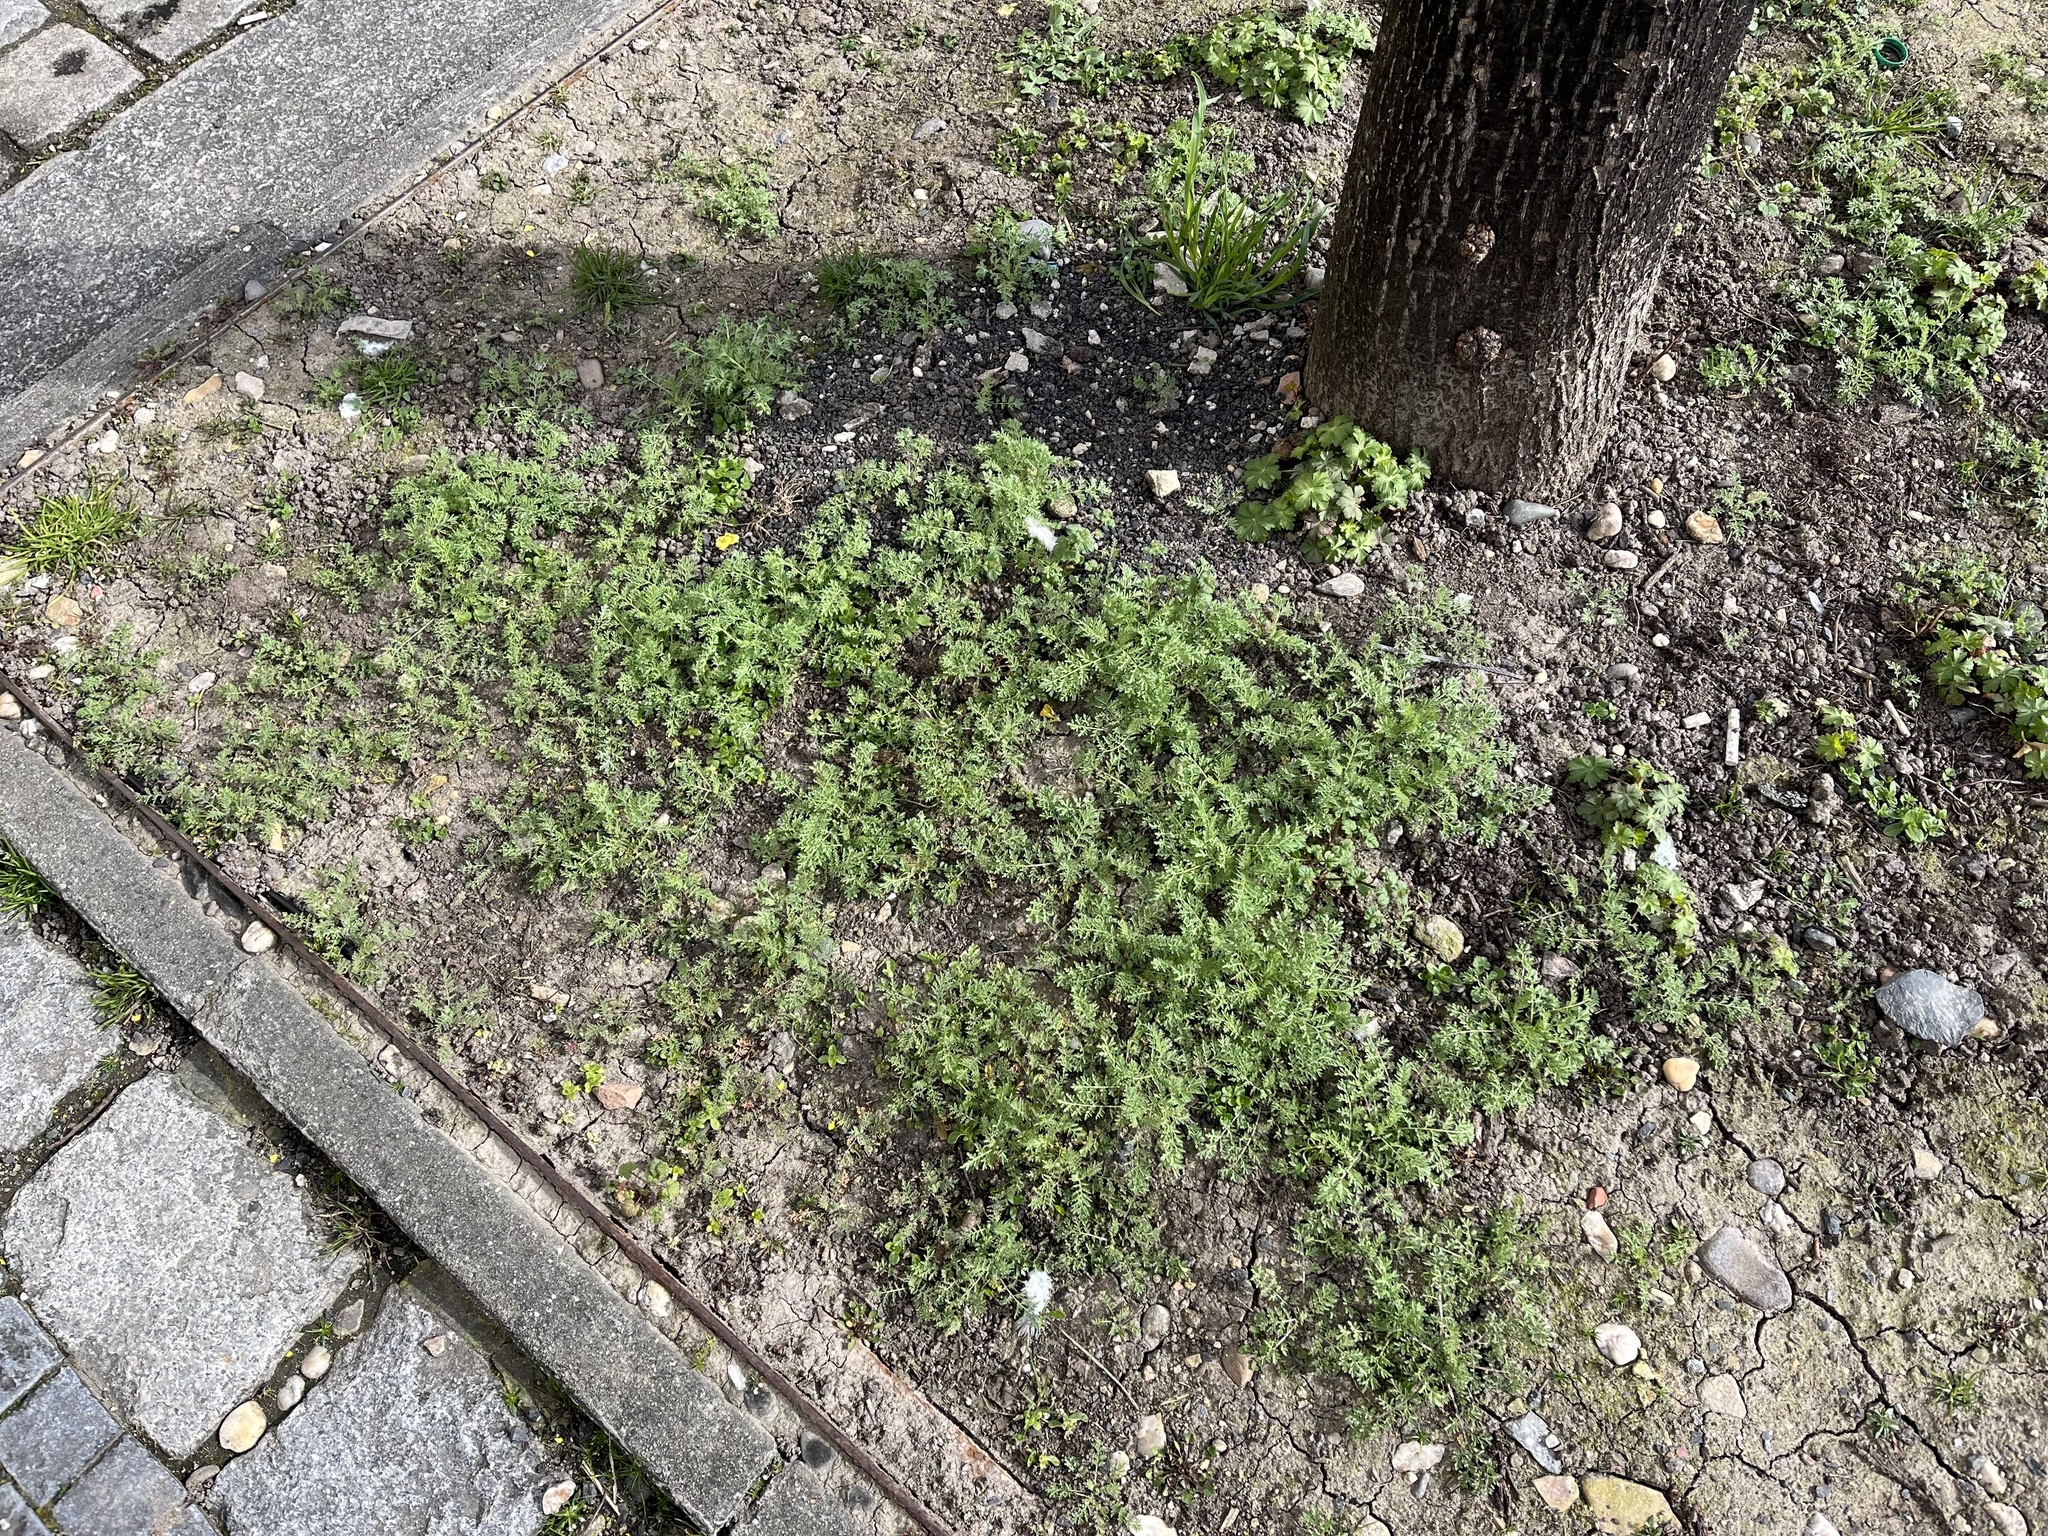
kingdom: Plantae
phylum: Tracheophyta
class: Magnoliopsida
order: Brassicales
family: Brassicaceae
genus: Descurainia
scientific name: Descurainia sophia
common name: Flixweed
